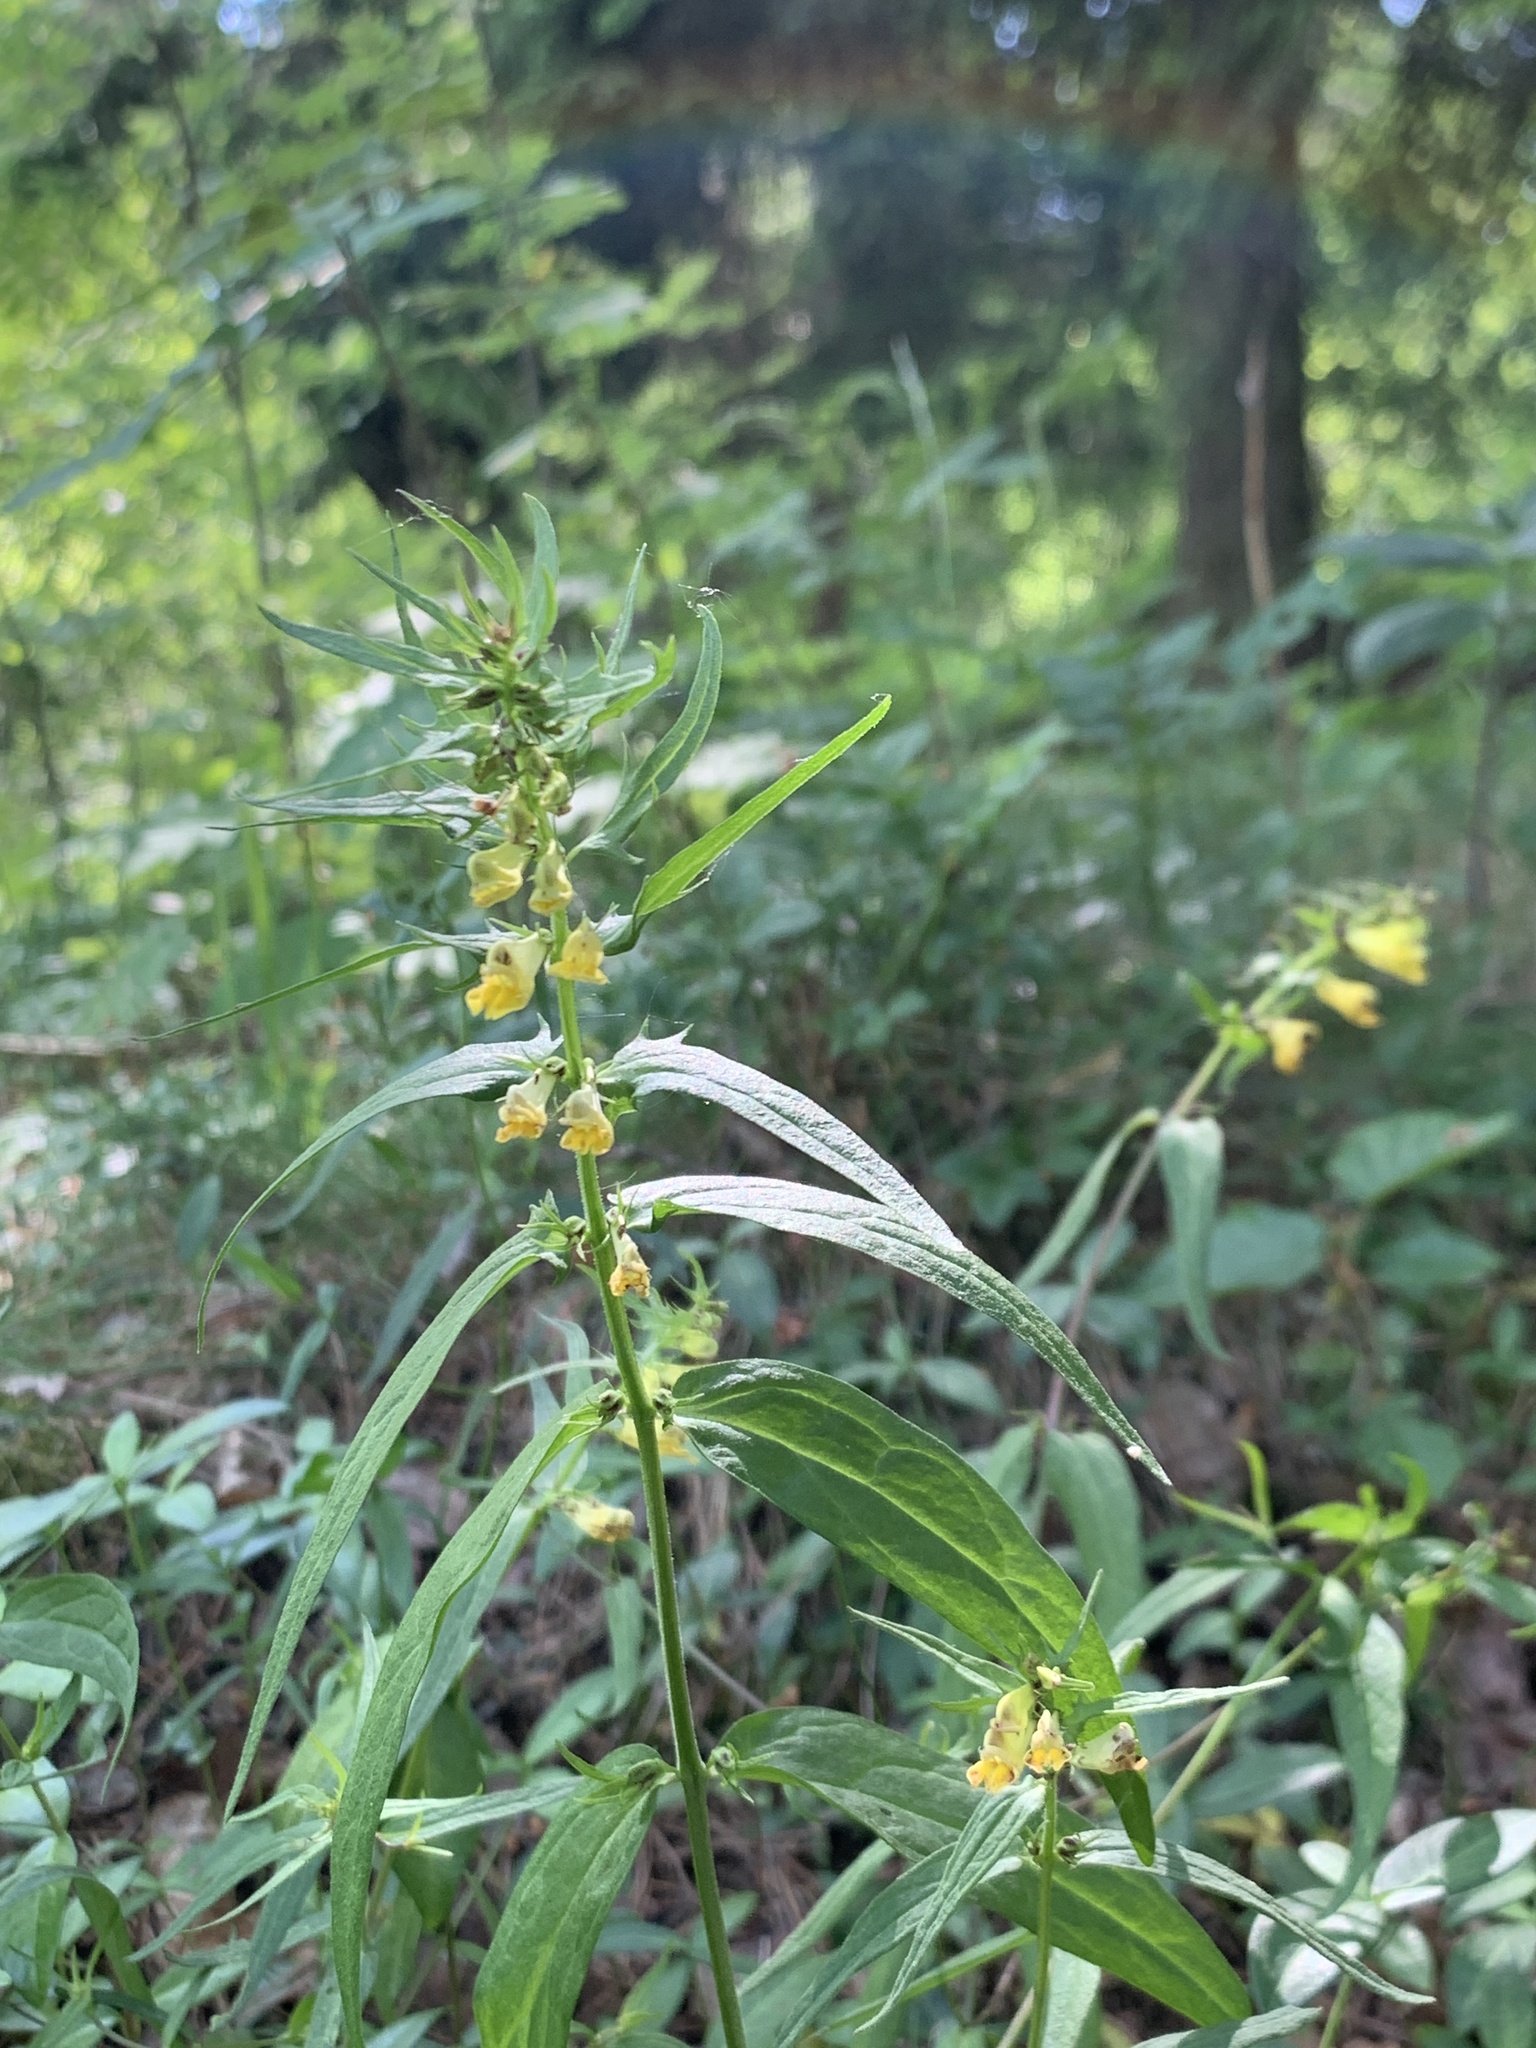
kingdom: Plantae
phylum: Tracheophyta
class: Magnoliopsida
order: Lamiales
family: Orobanchaceae
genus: Melampyrum
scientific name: Melampyrum pratense
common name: Common cow-wheat
